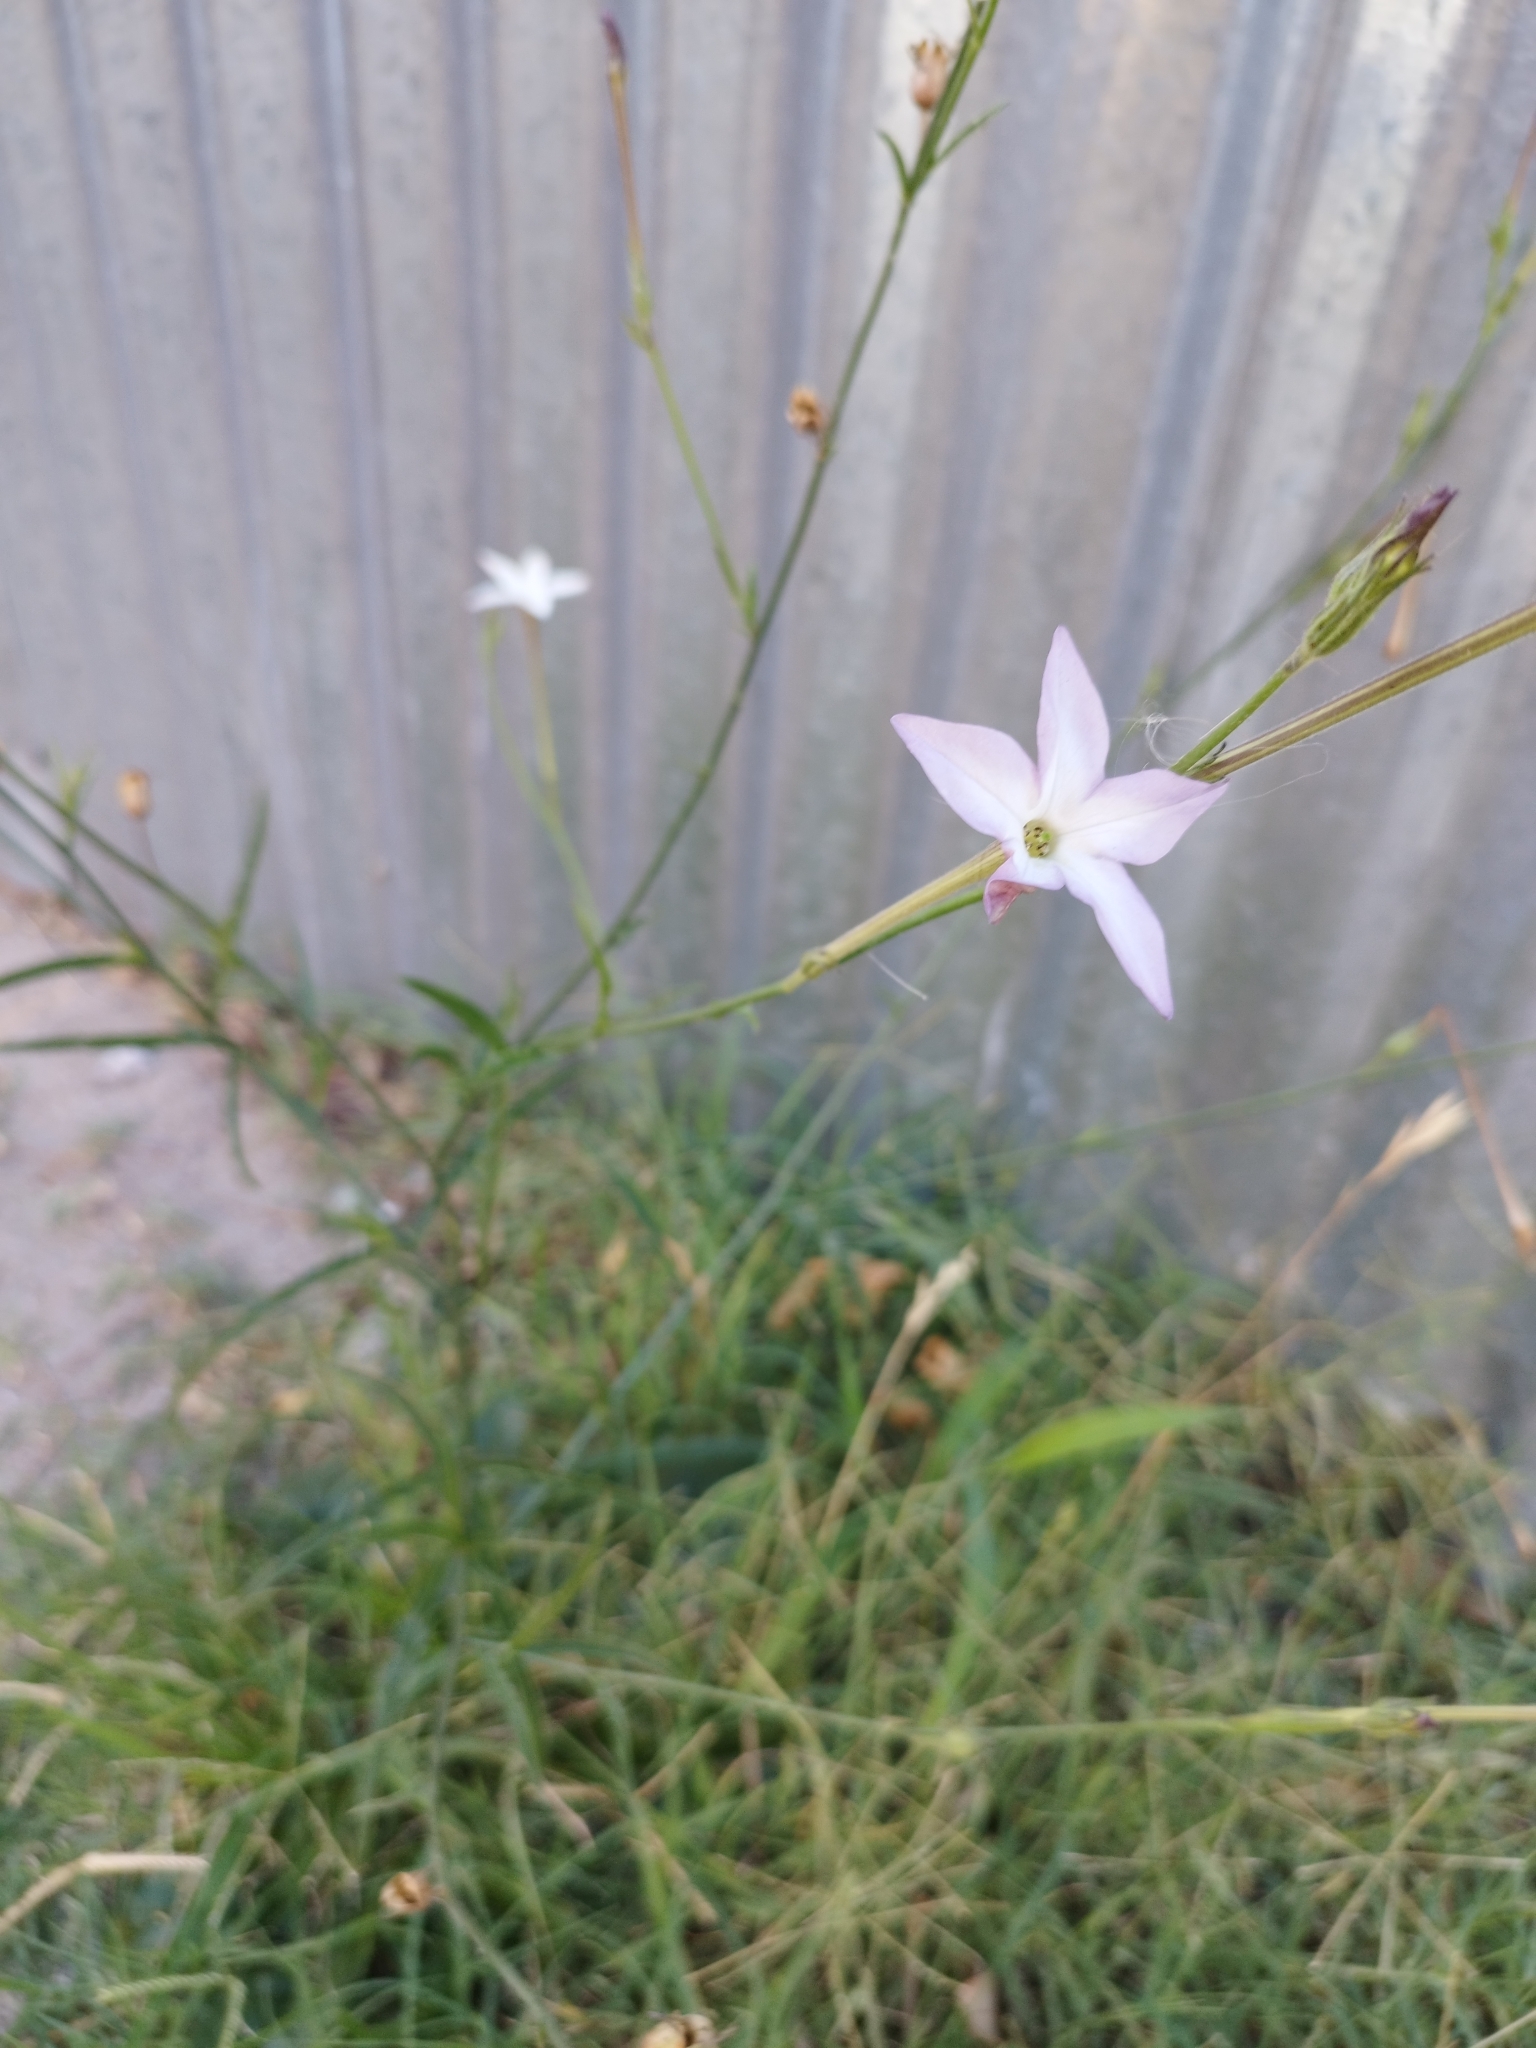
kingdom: Plantae
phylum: Tracheophyta
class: Magnoliopsida
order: Solanales
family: Solanaceae
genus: Nicotiana
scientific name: Nicotiana longiflora
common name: Long-flowered tobacco
